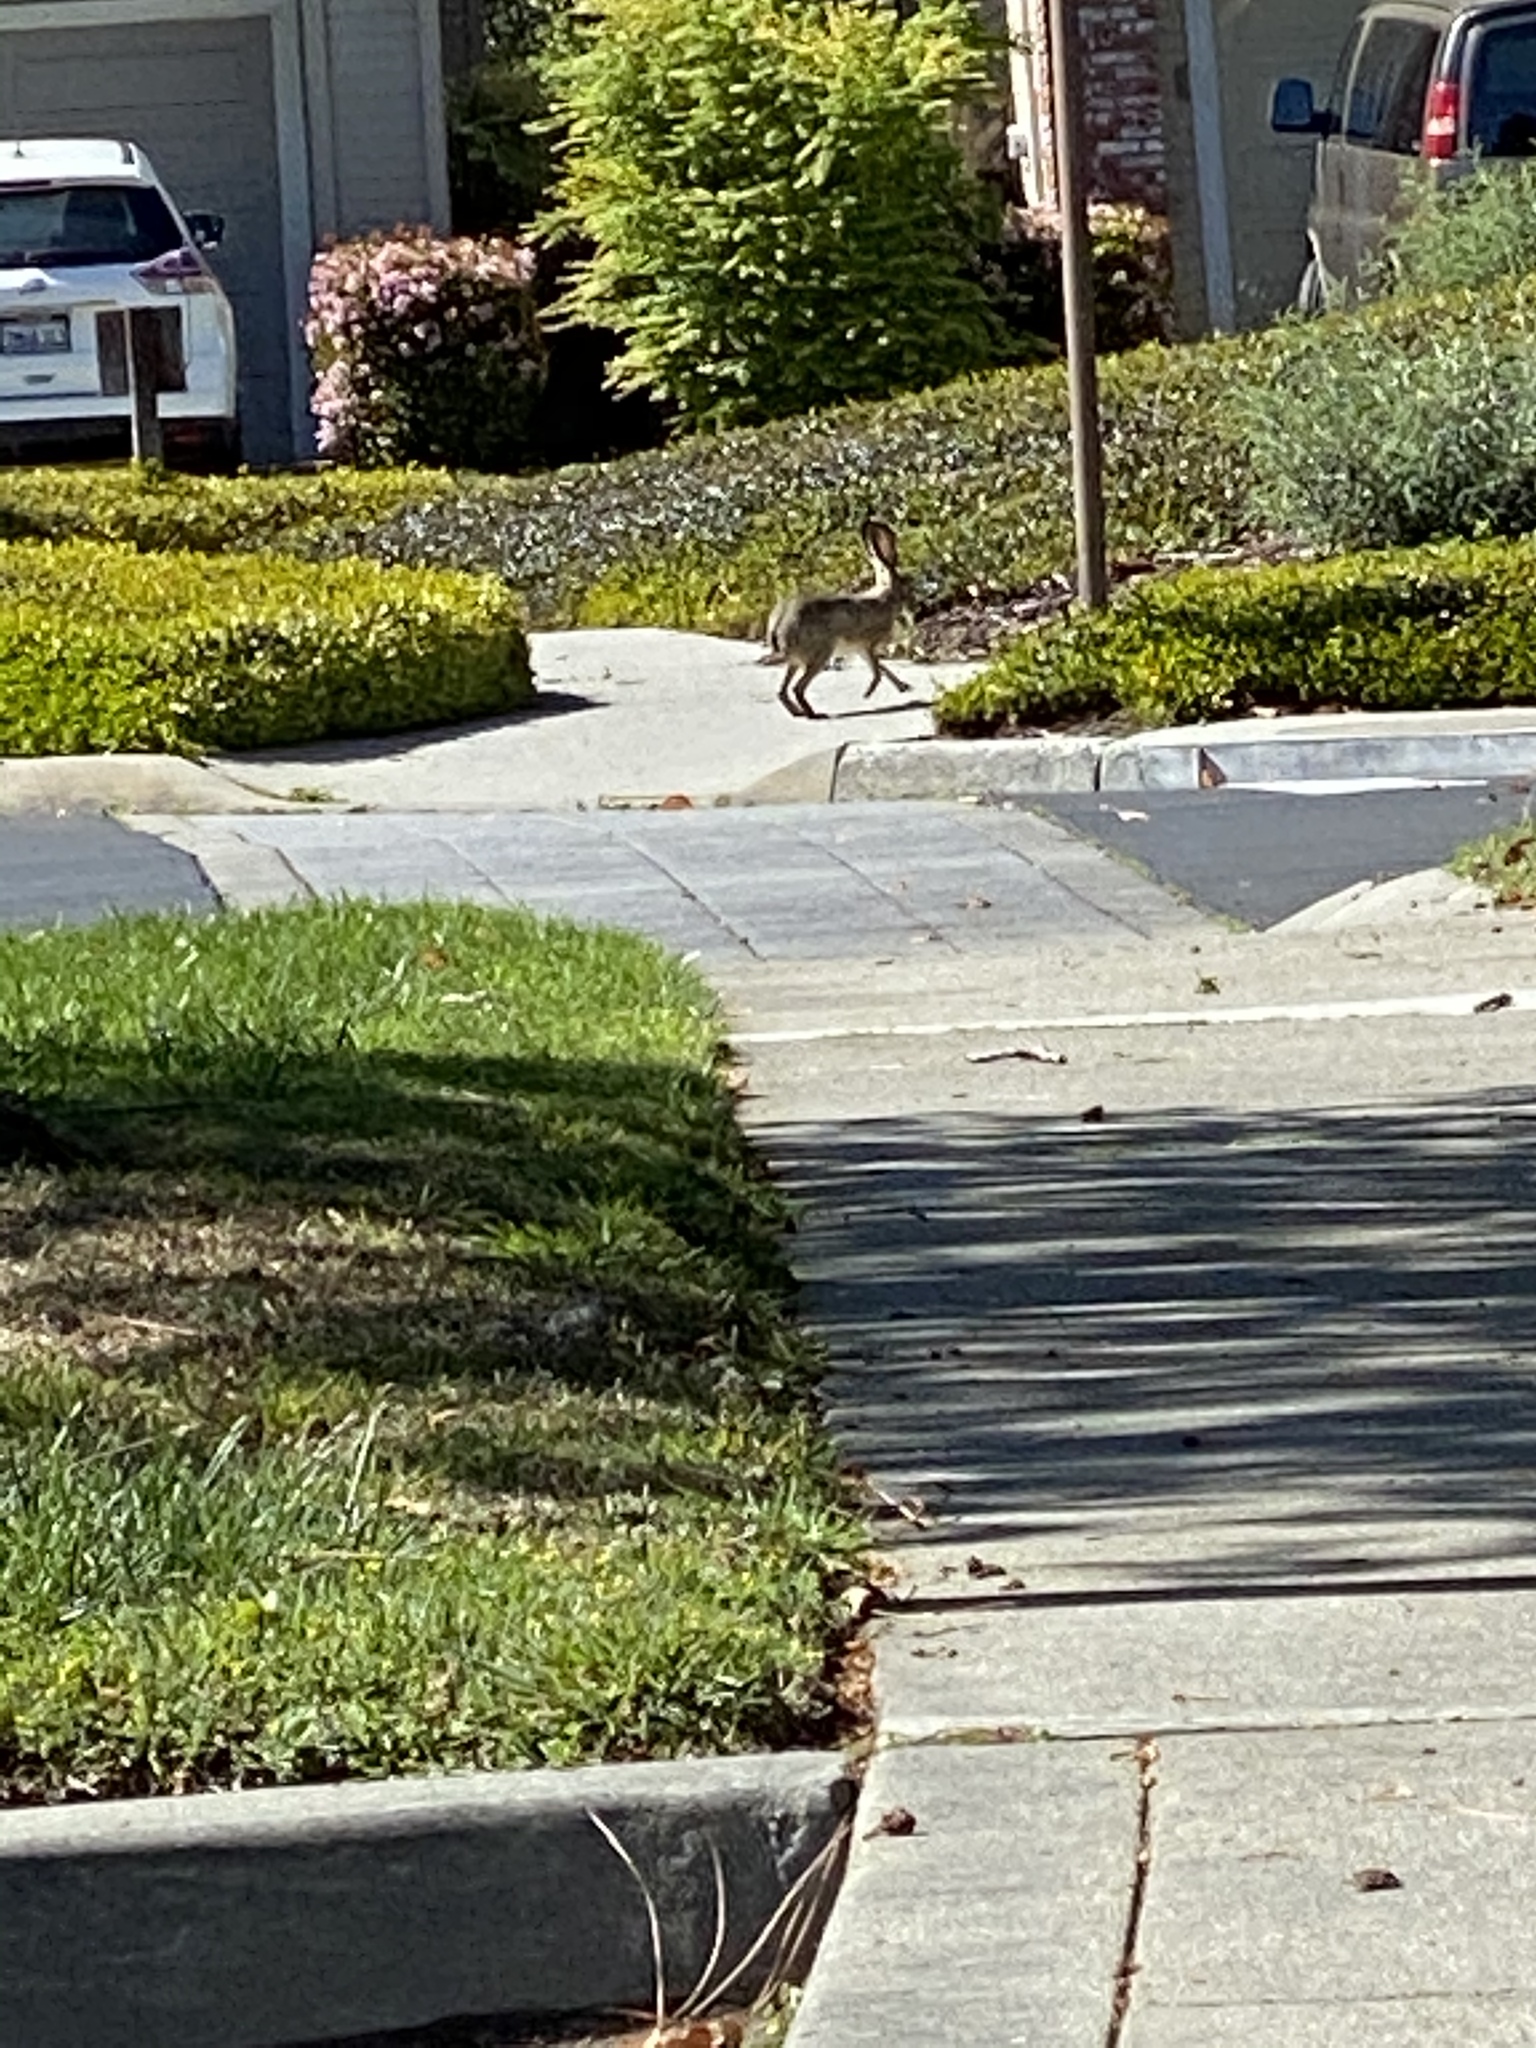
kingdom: Animalia
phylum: Chordata
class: Mammalia
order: Lagomorpha
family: Leporidae
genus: Lepus
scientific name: Lepus californicus
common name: Black-tailed jackrabbit
